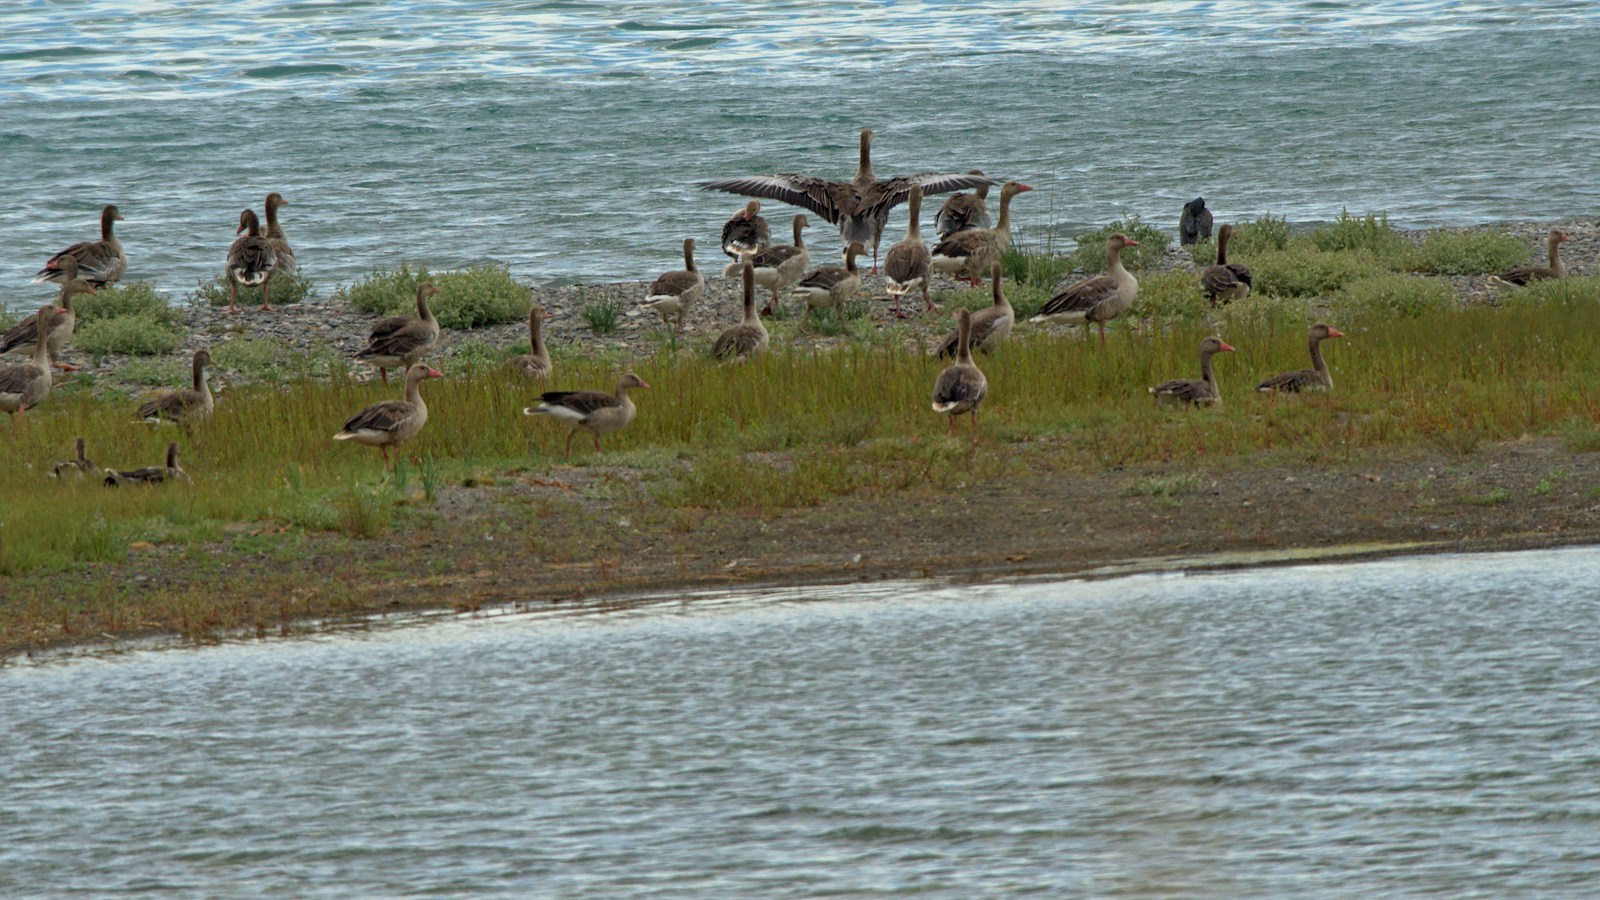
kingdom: Animalia
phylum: Chordata
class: Aves
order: Anseriformes
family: Anatidae
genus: Anser
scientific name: Anser anser
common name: Greylag goose
